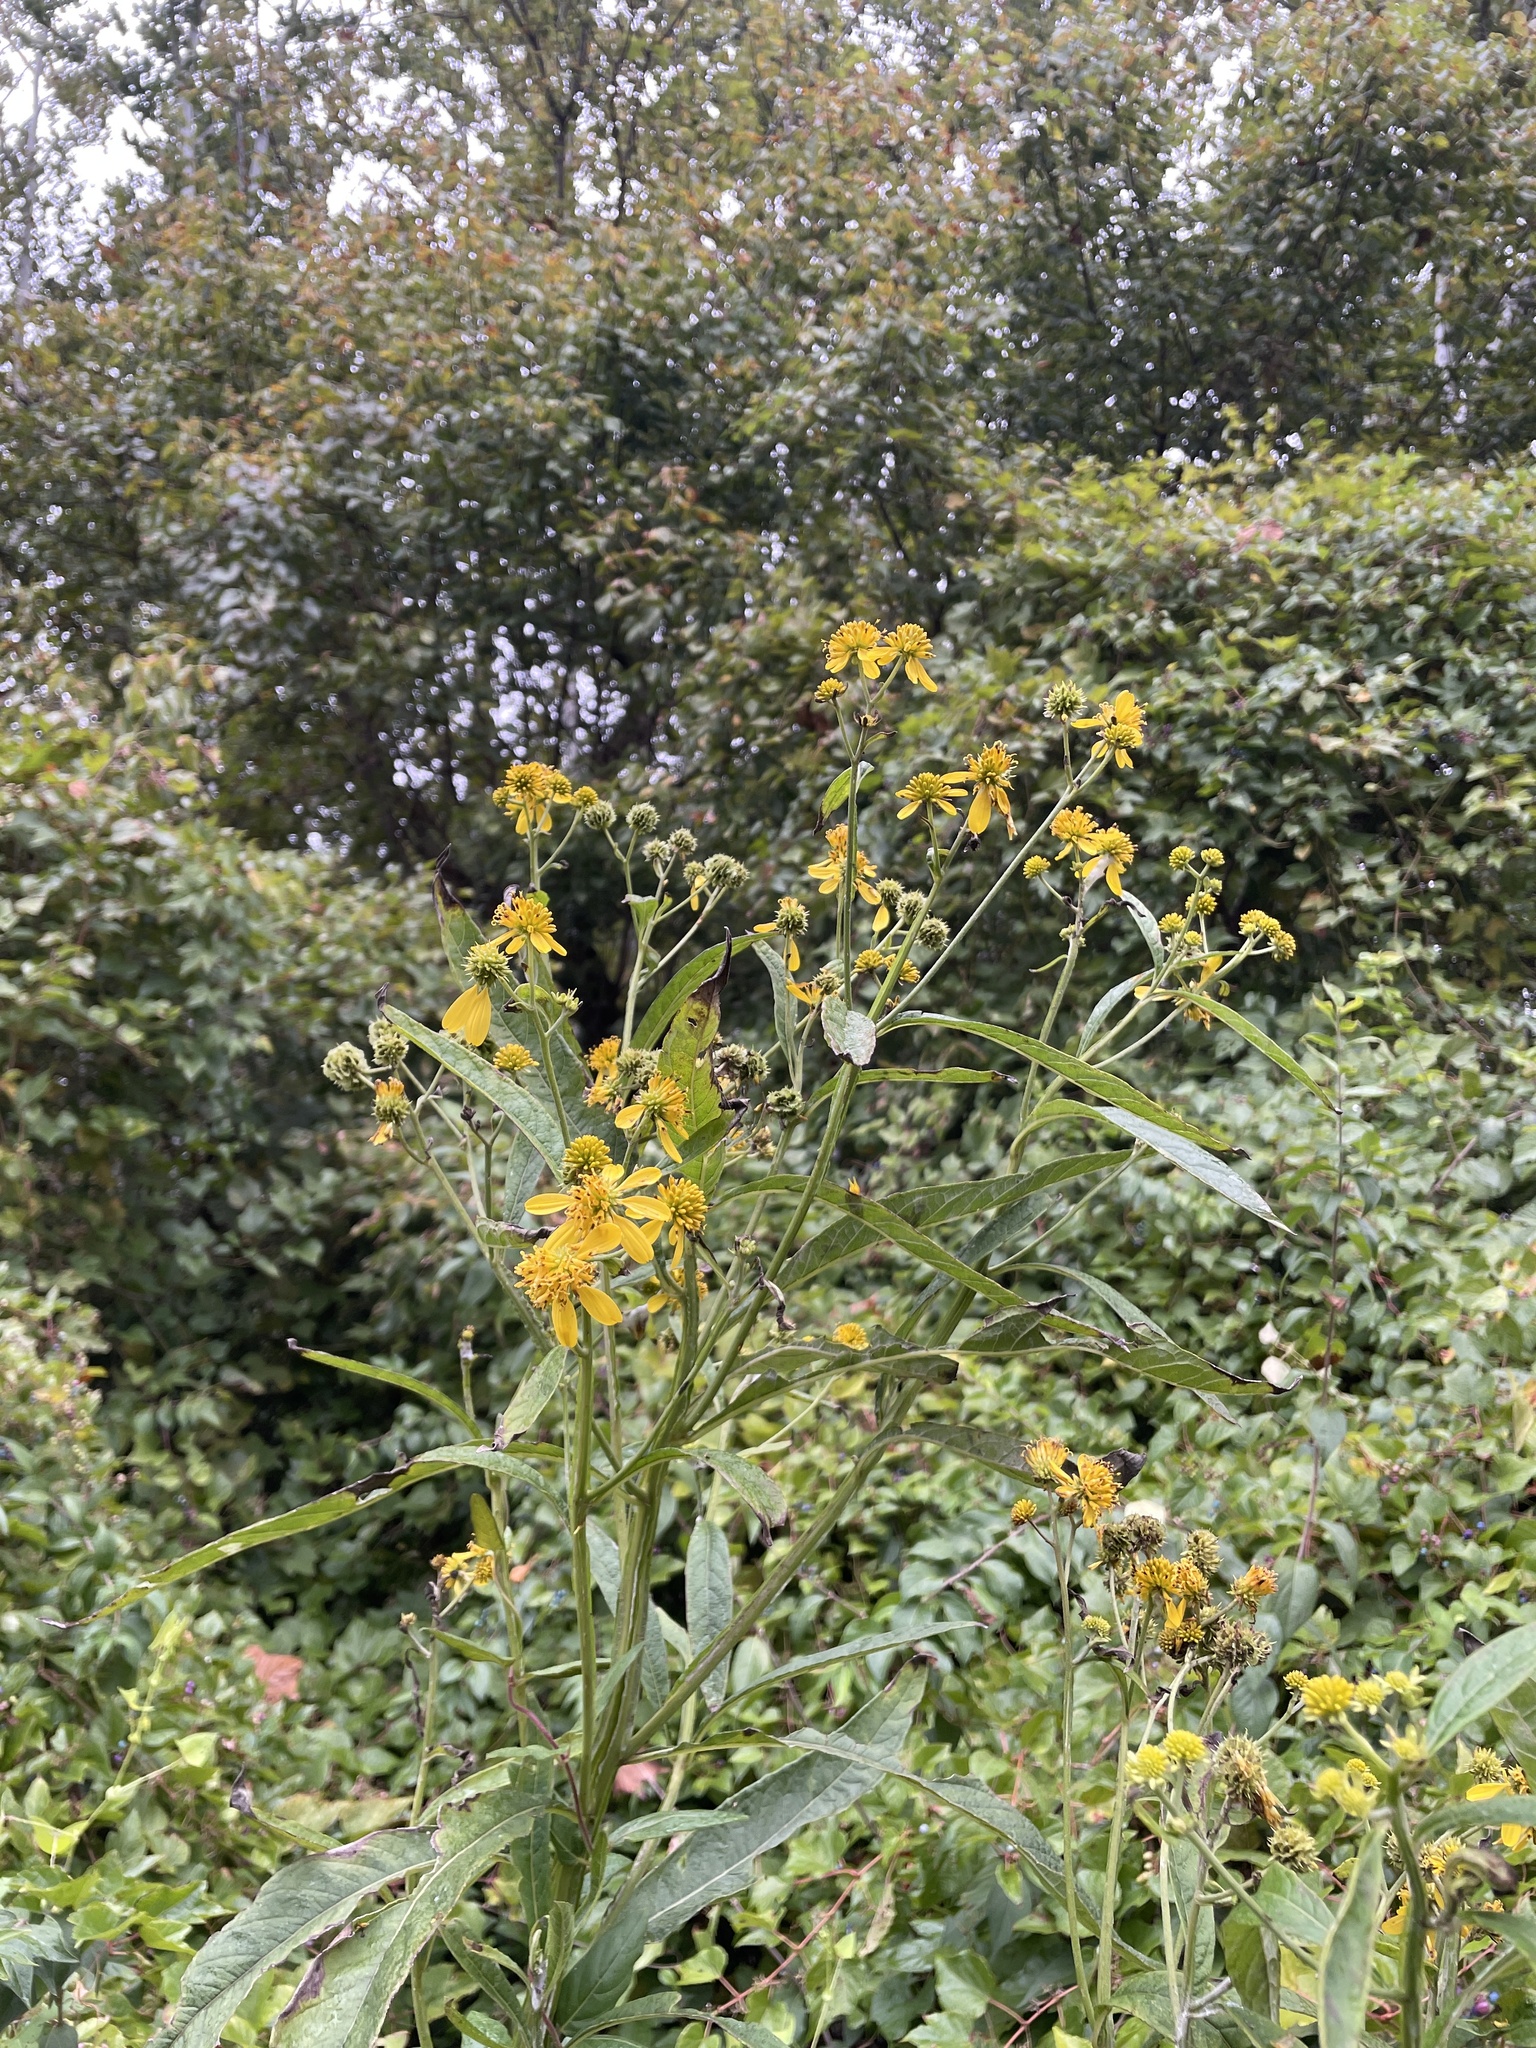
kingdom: Plantae
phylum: Tracheophyta
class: Magnoliopsida
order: Asterales
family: Asteraceae
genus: Verbesina
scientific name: Verbesina alternifolia
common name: Wingstem
